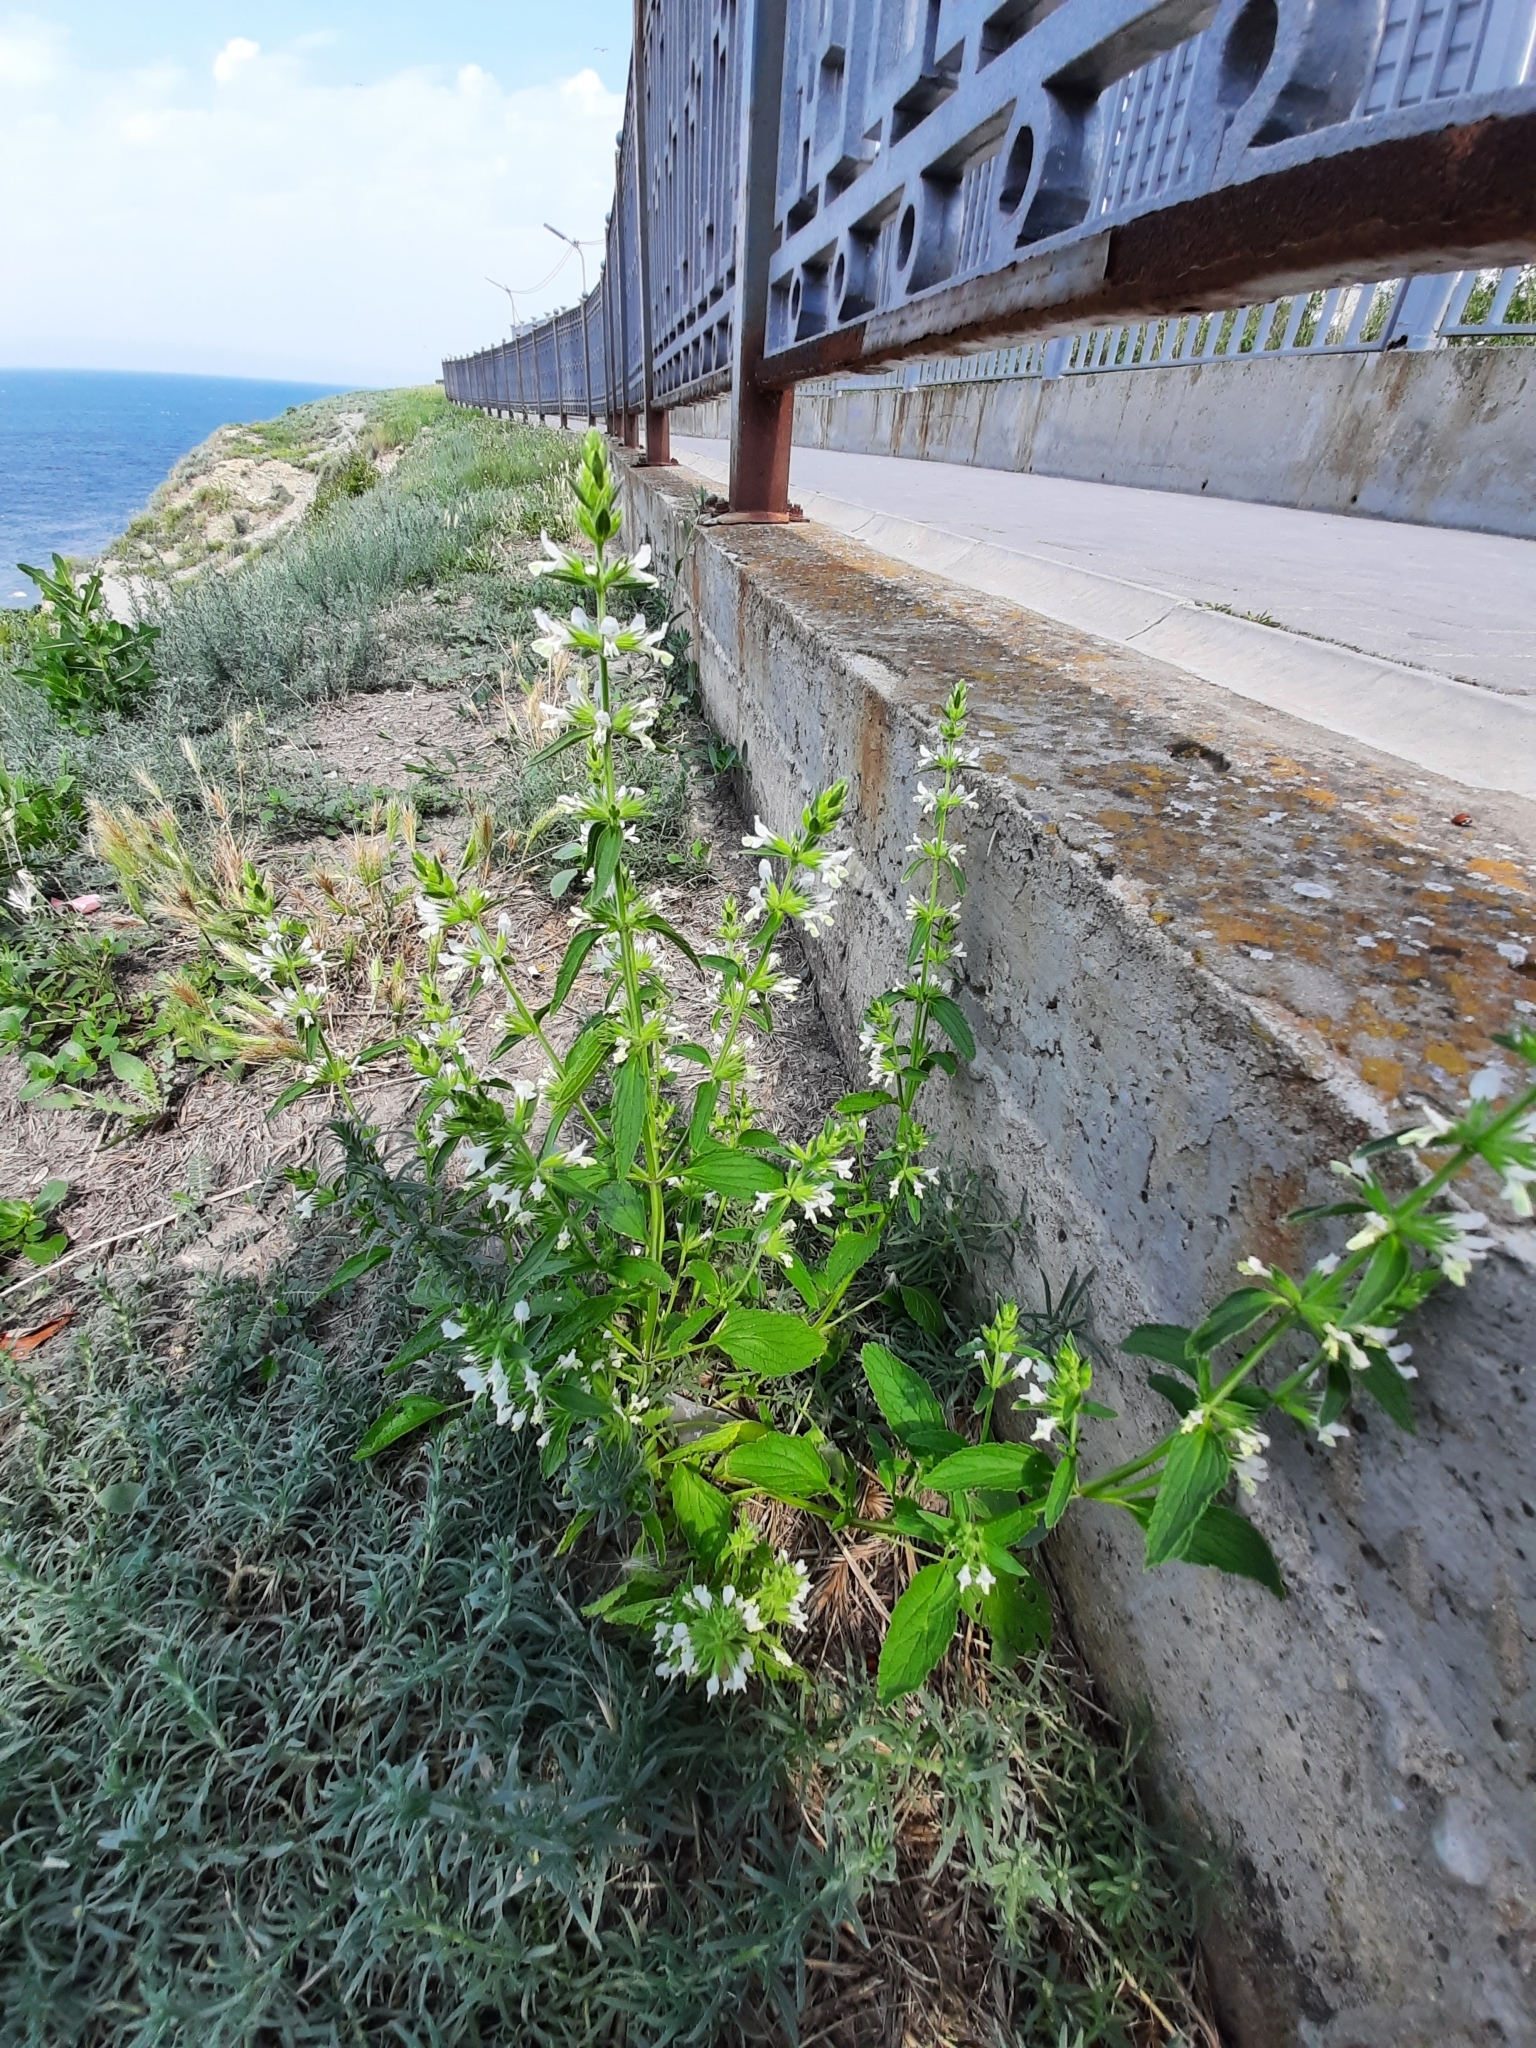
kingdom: Plantae
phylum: Tracheophyta
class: Magnoliopsida
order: Lamiales
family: Lamiaceae
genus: Stachys
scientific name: Stachys annua
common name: Annual yellow-woundwort
